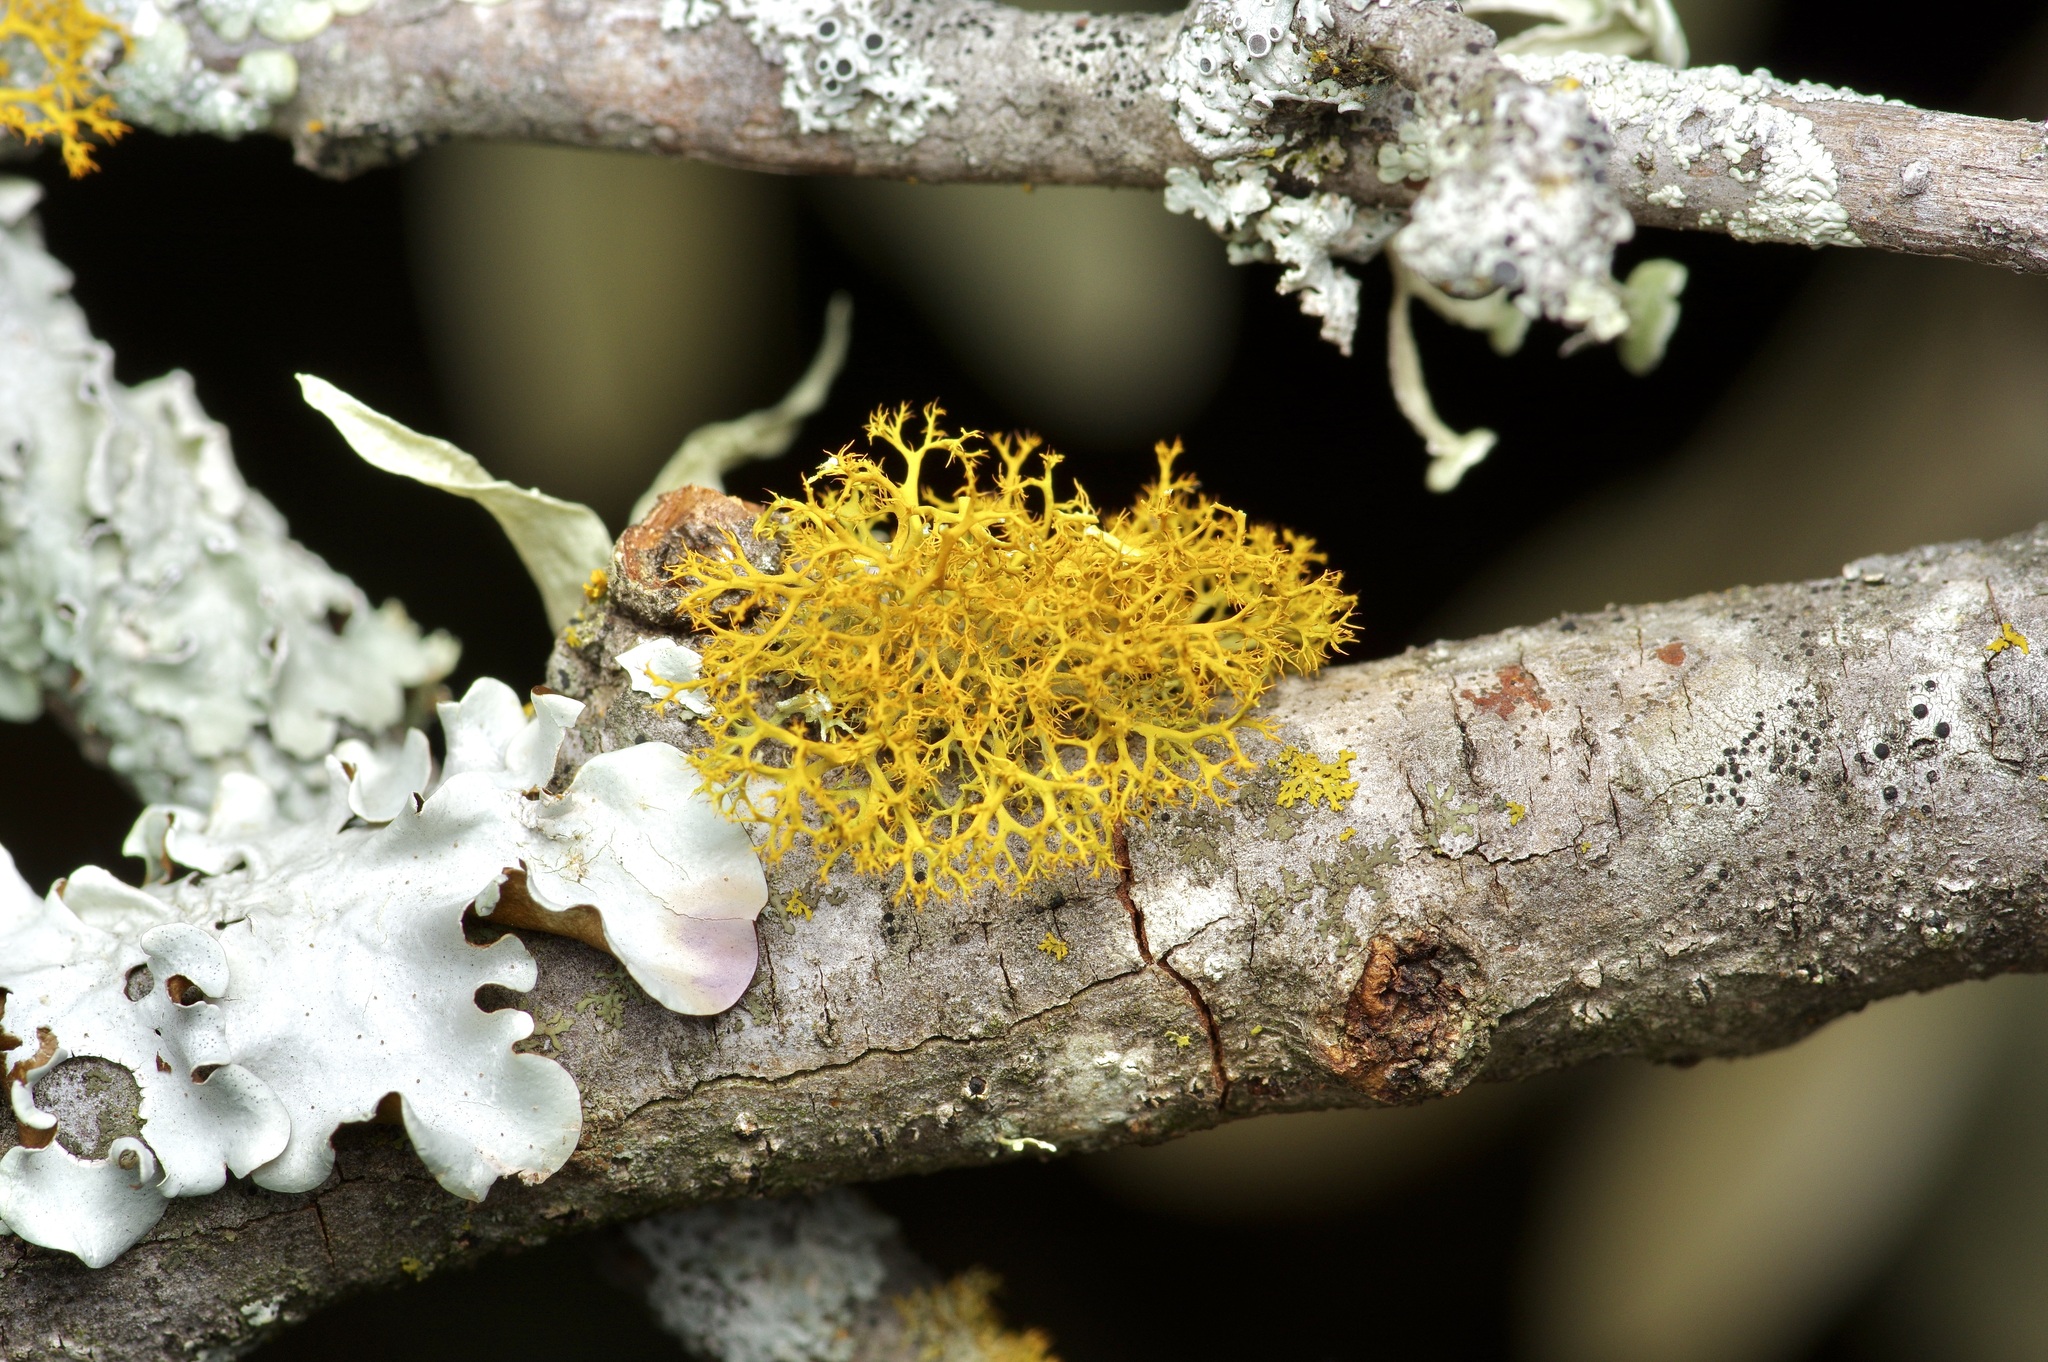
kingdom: Fungi
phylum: Ascomycota
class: Lecanoromycetes
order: Teloschistales
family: Teloschistaceae
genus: Teloschistes
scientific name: Teloschistes exilis
